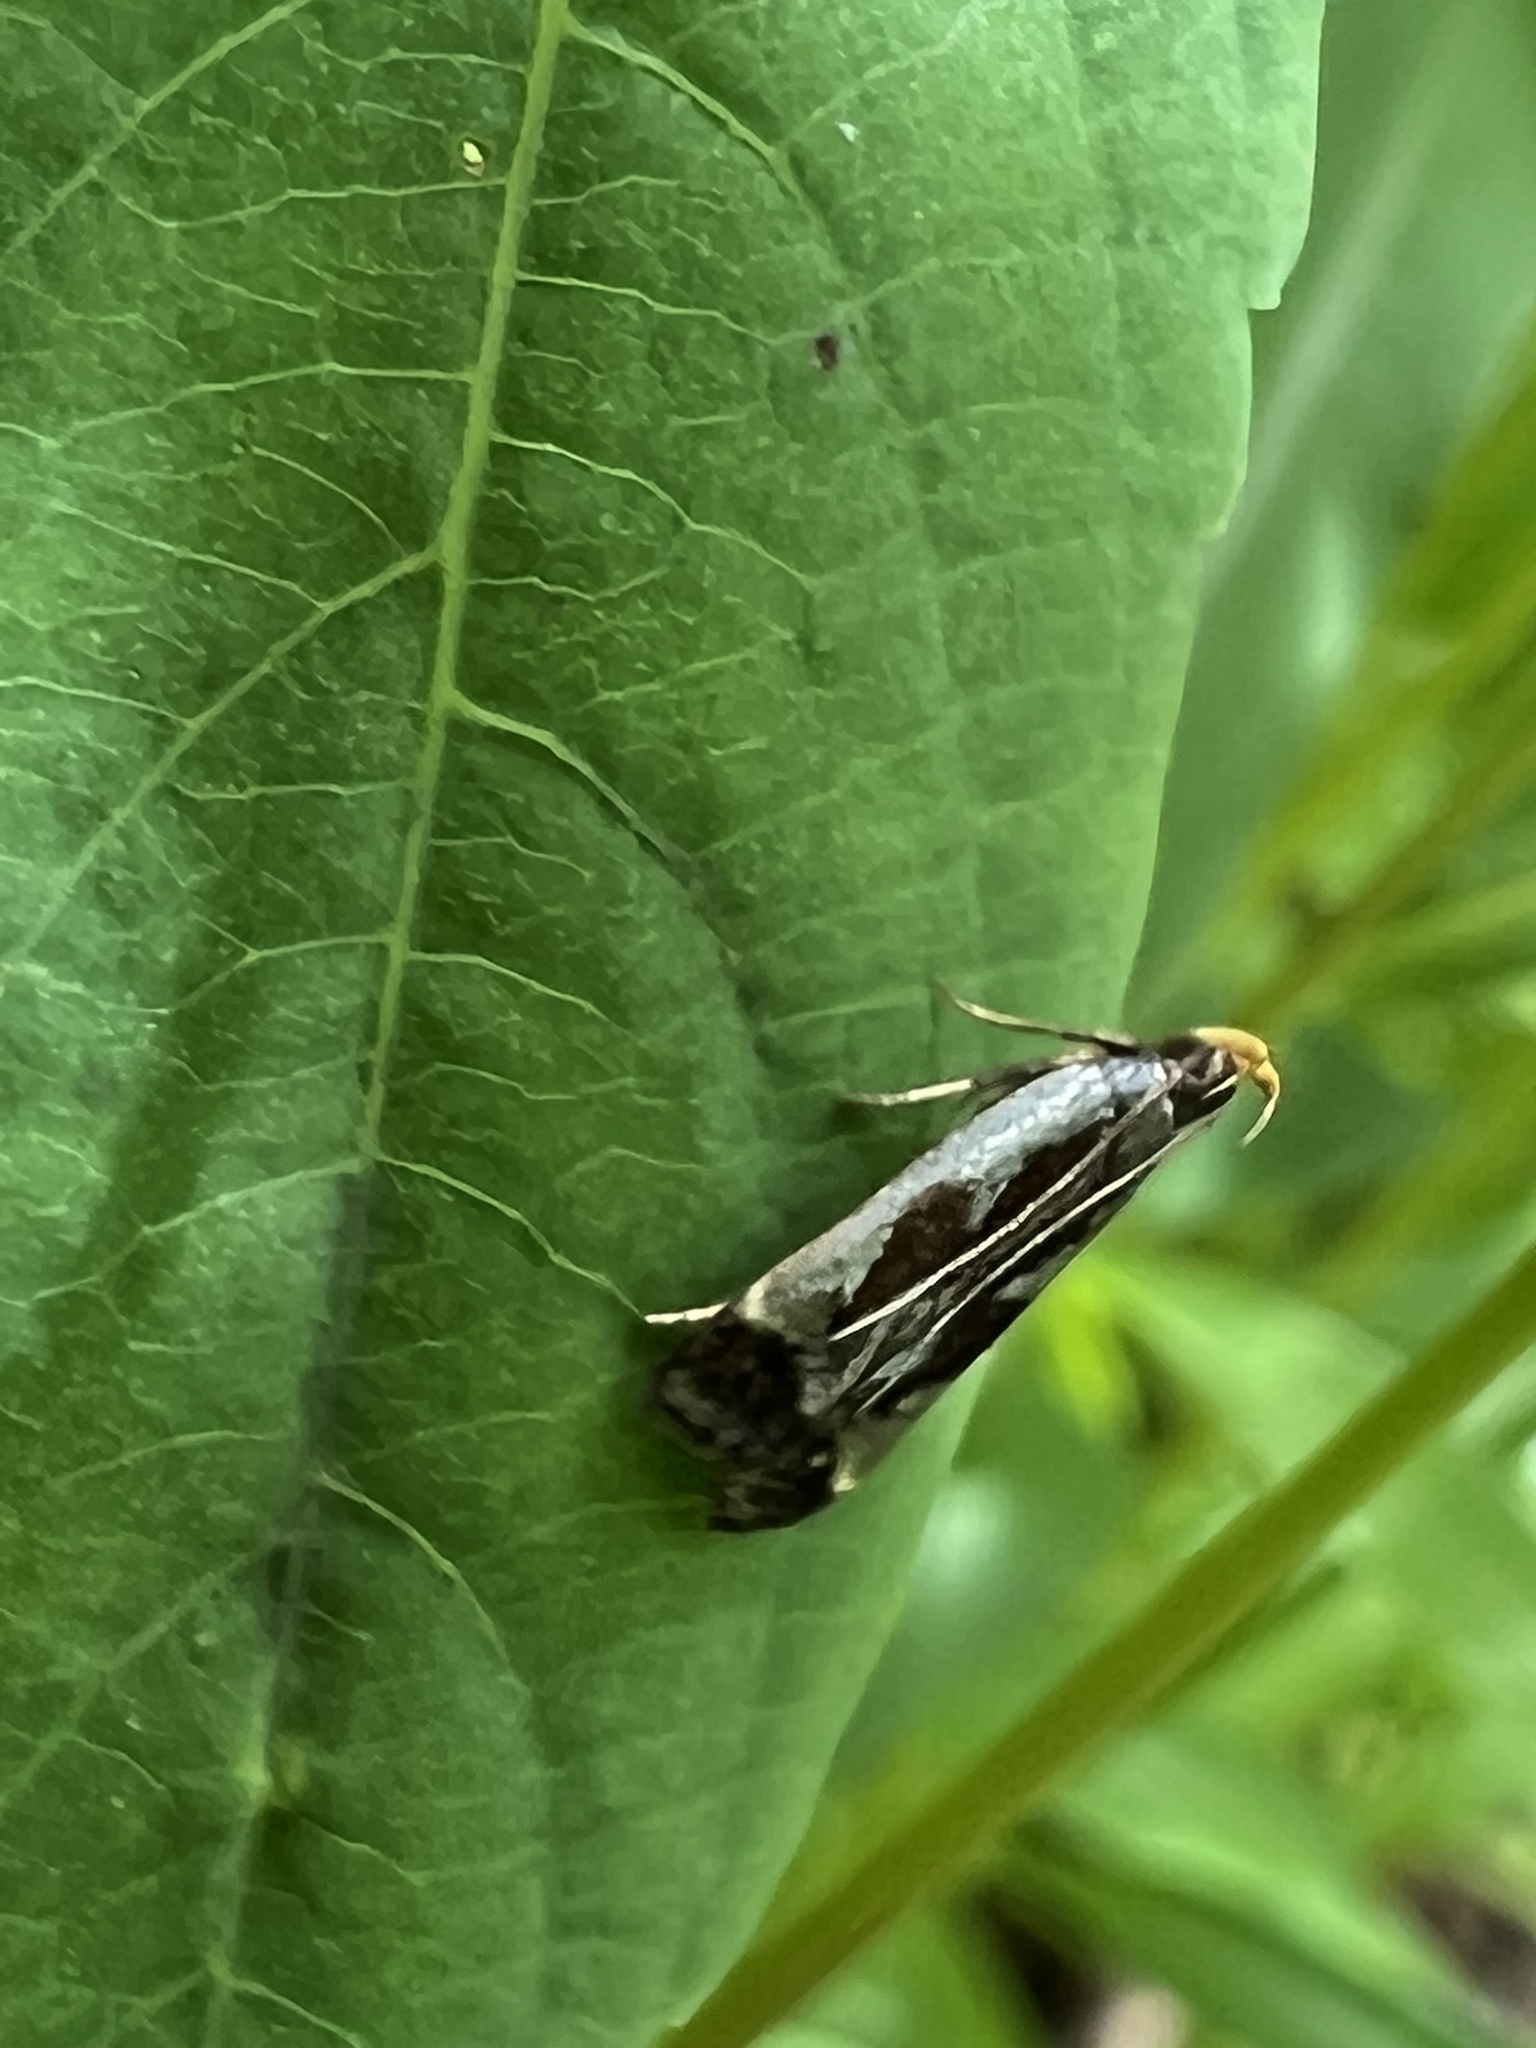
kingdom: Animalia
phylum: Arthropoda
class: Insecta
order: Lepidoptera
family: Gelechiidae
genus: Dichomeris
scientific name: Dichomeris ochripalpella
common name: Shining dichomeris moth
